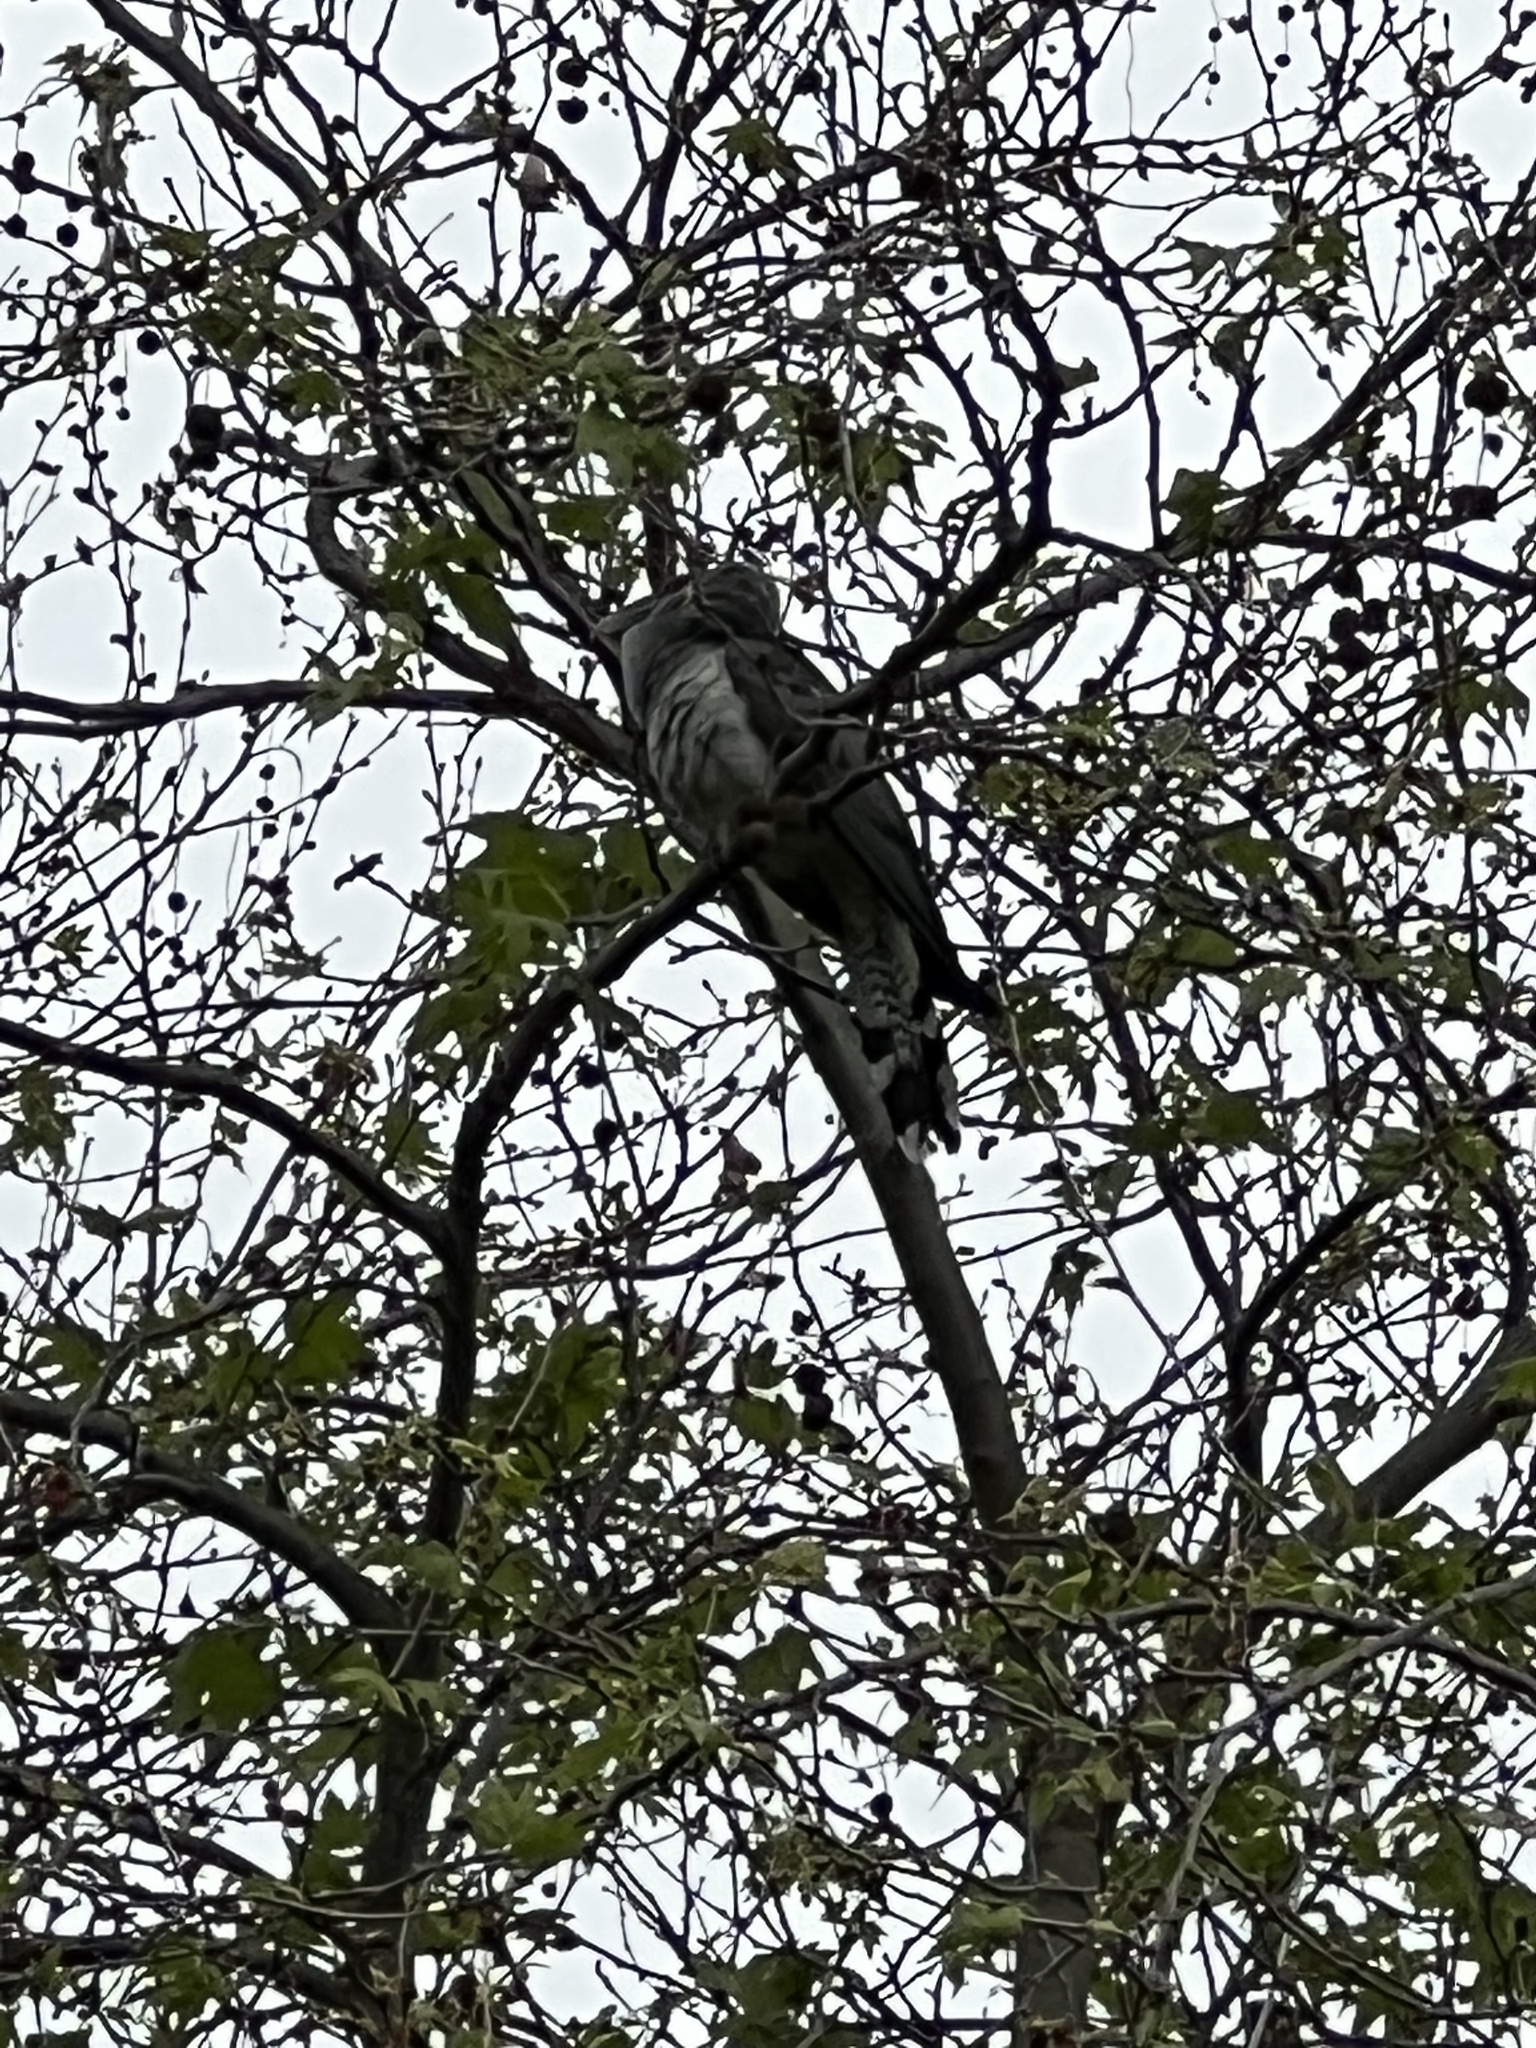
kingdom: Animalia
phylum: Chordata
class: Aves
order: Cuculiformes
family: Cuculidae
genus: Scythrops
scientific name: Scythrops novaehollandiae
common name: Channel-billed cuckoo
